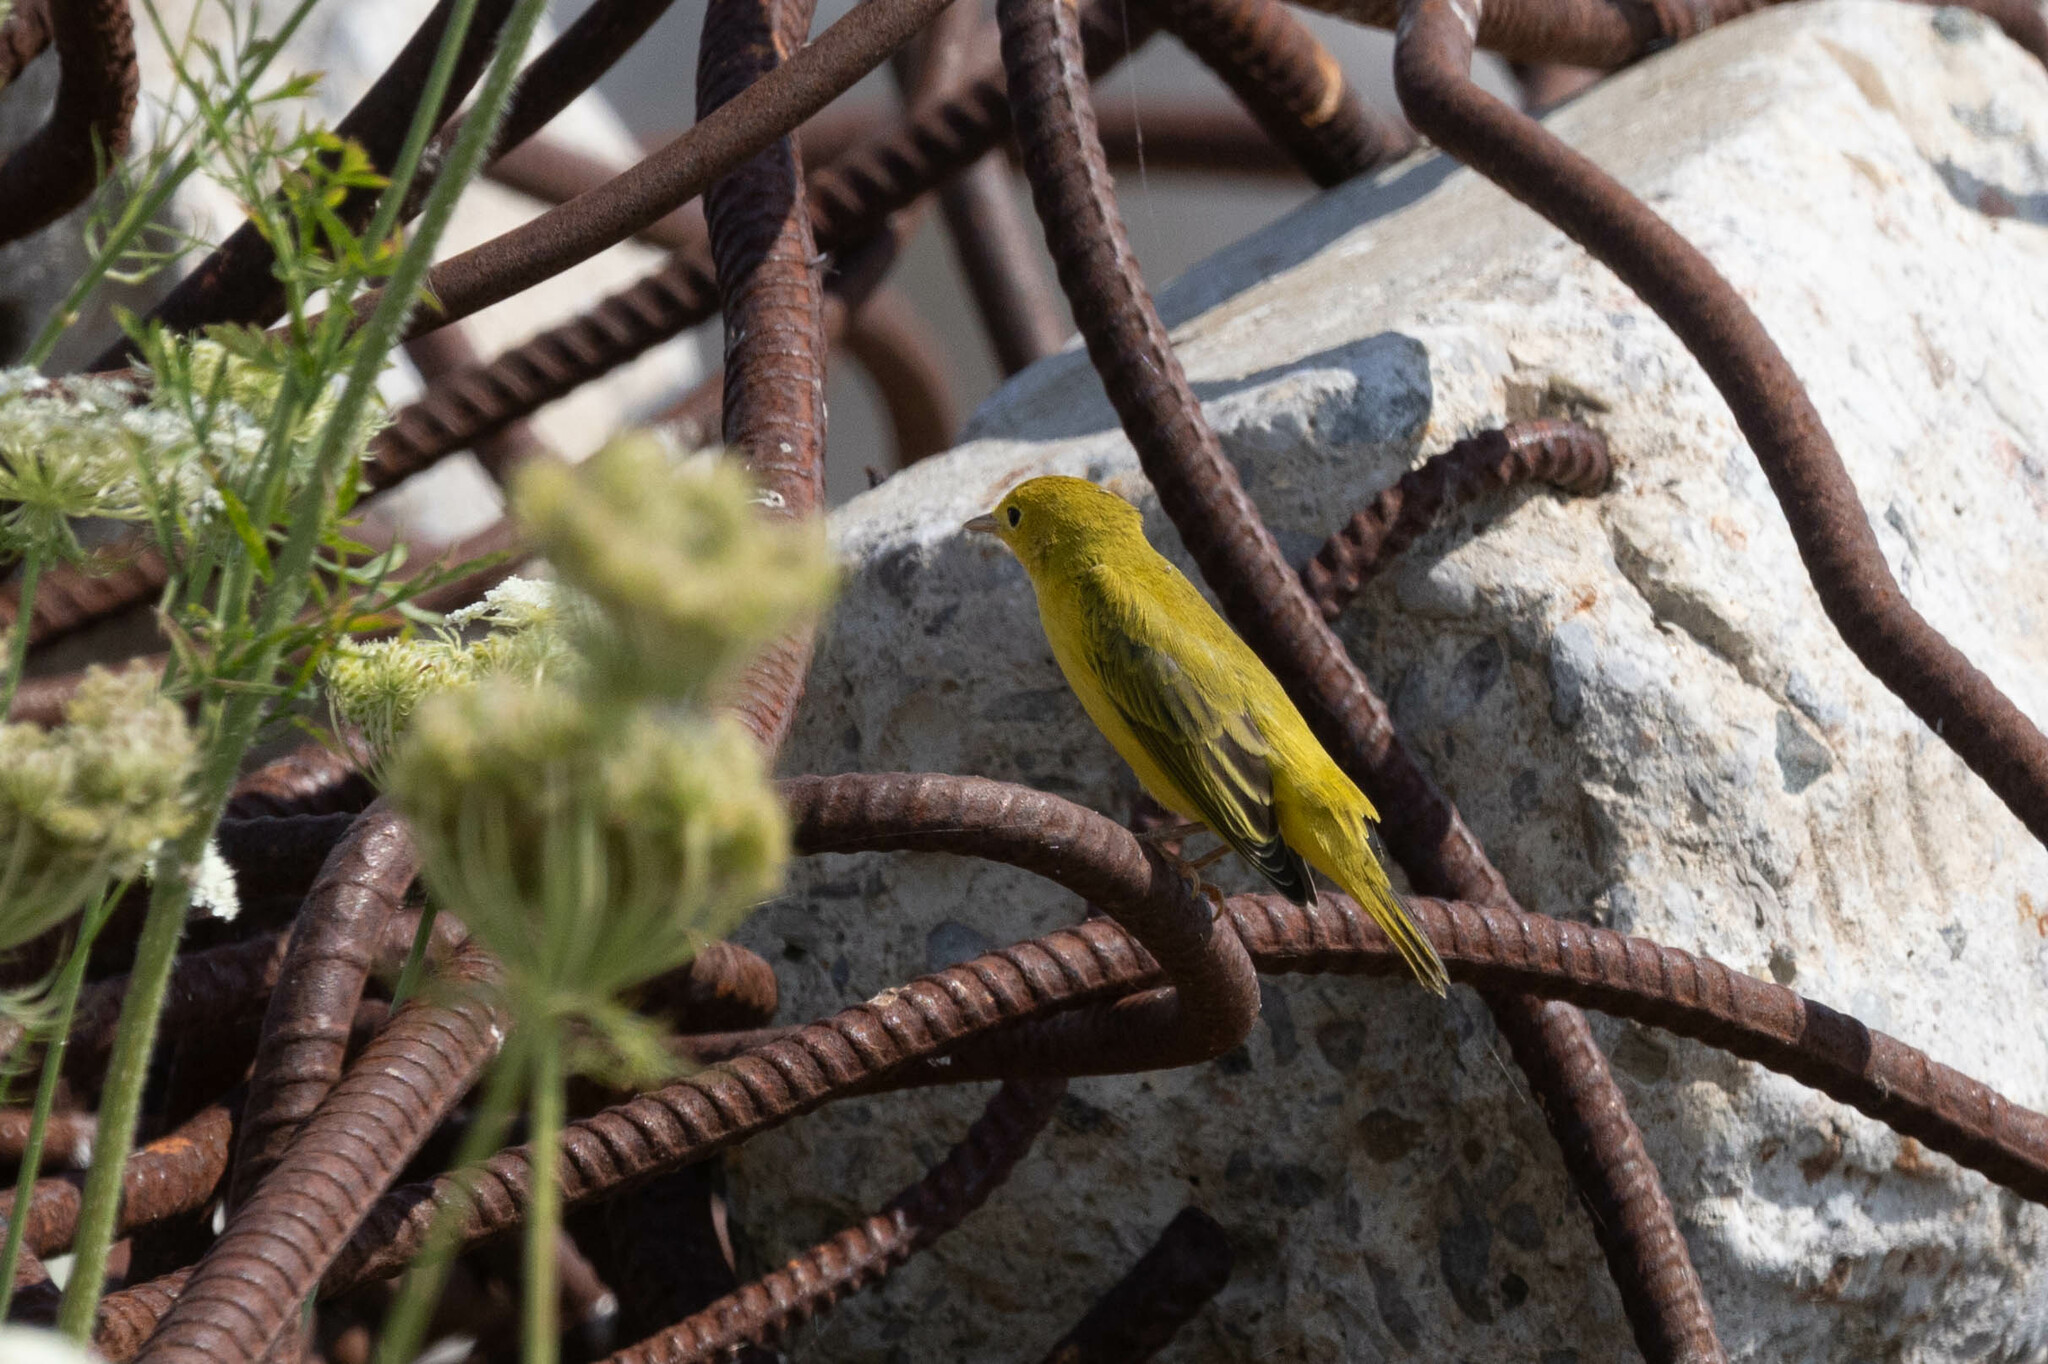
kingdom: Animalia
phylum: Chordata
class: Aves
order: Passeriformes
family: Parulidae
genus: Setophaga
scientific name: Setophaga petechia
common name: Yellow warbler
